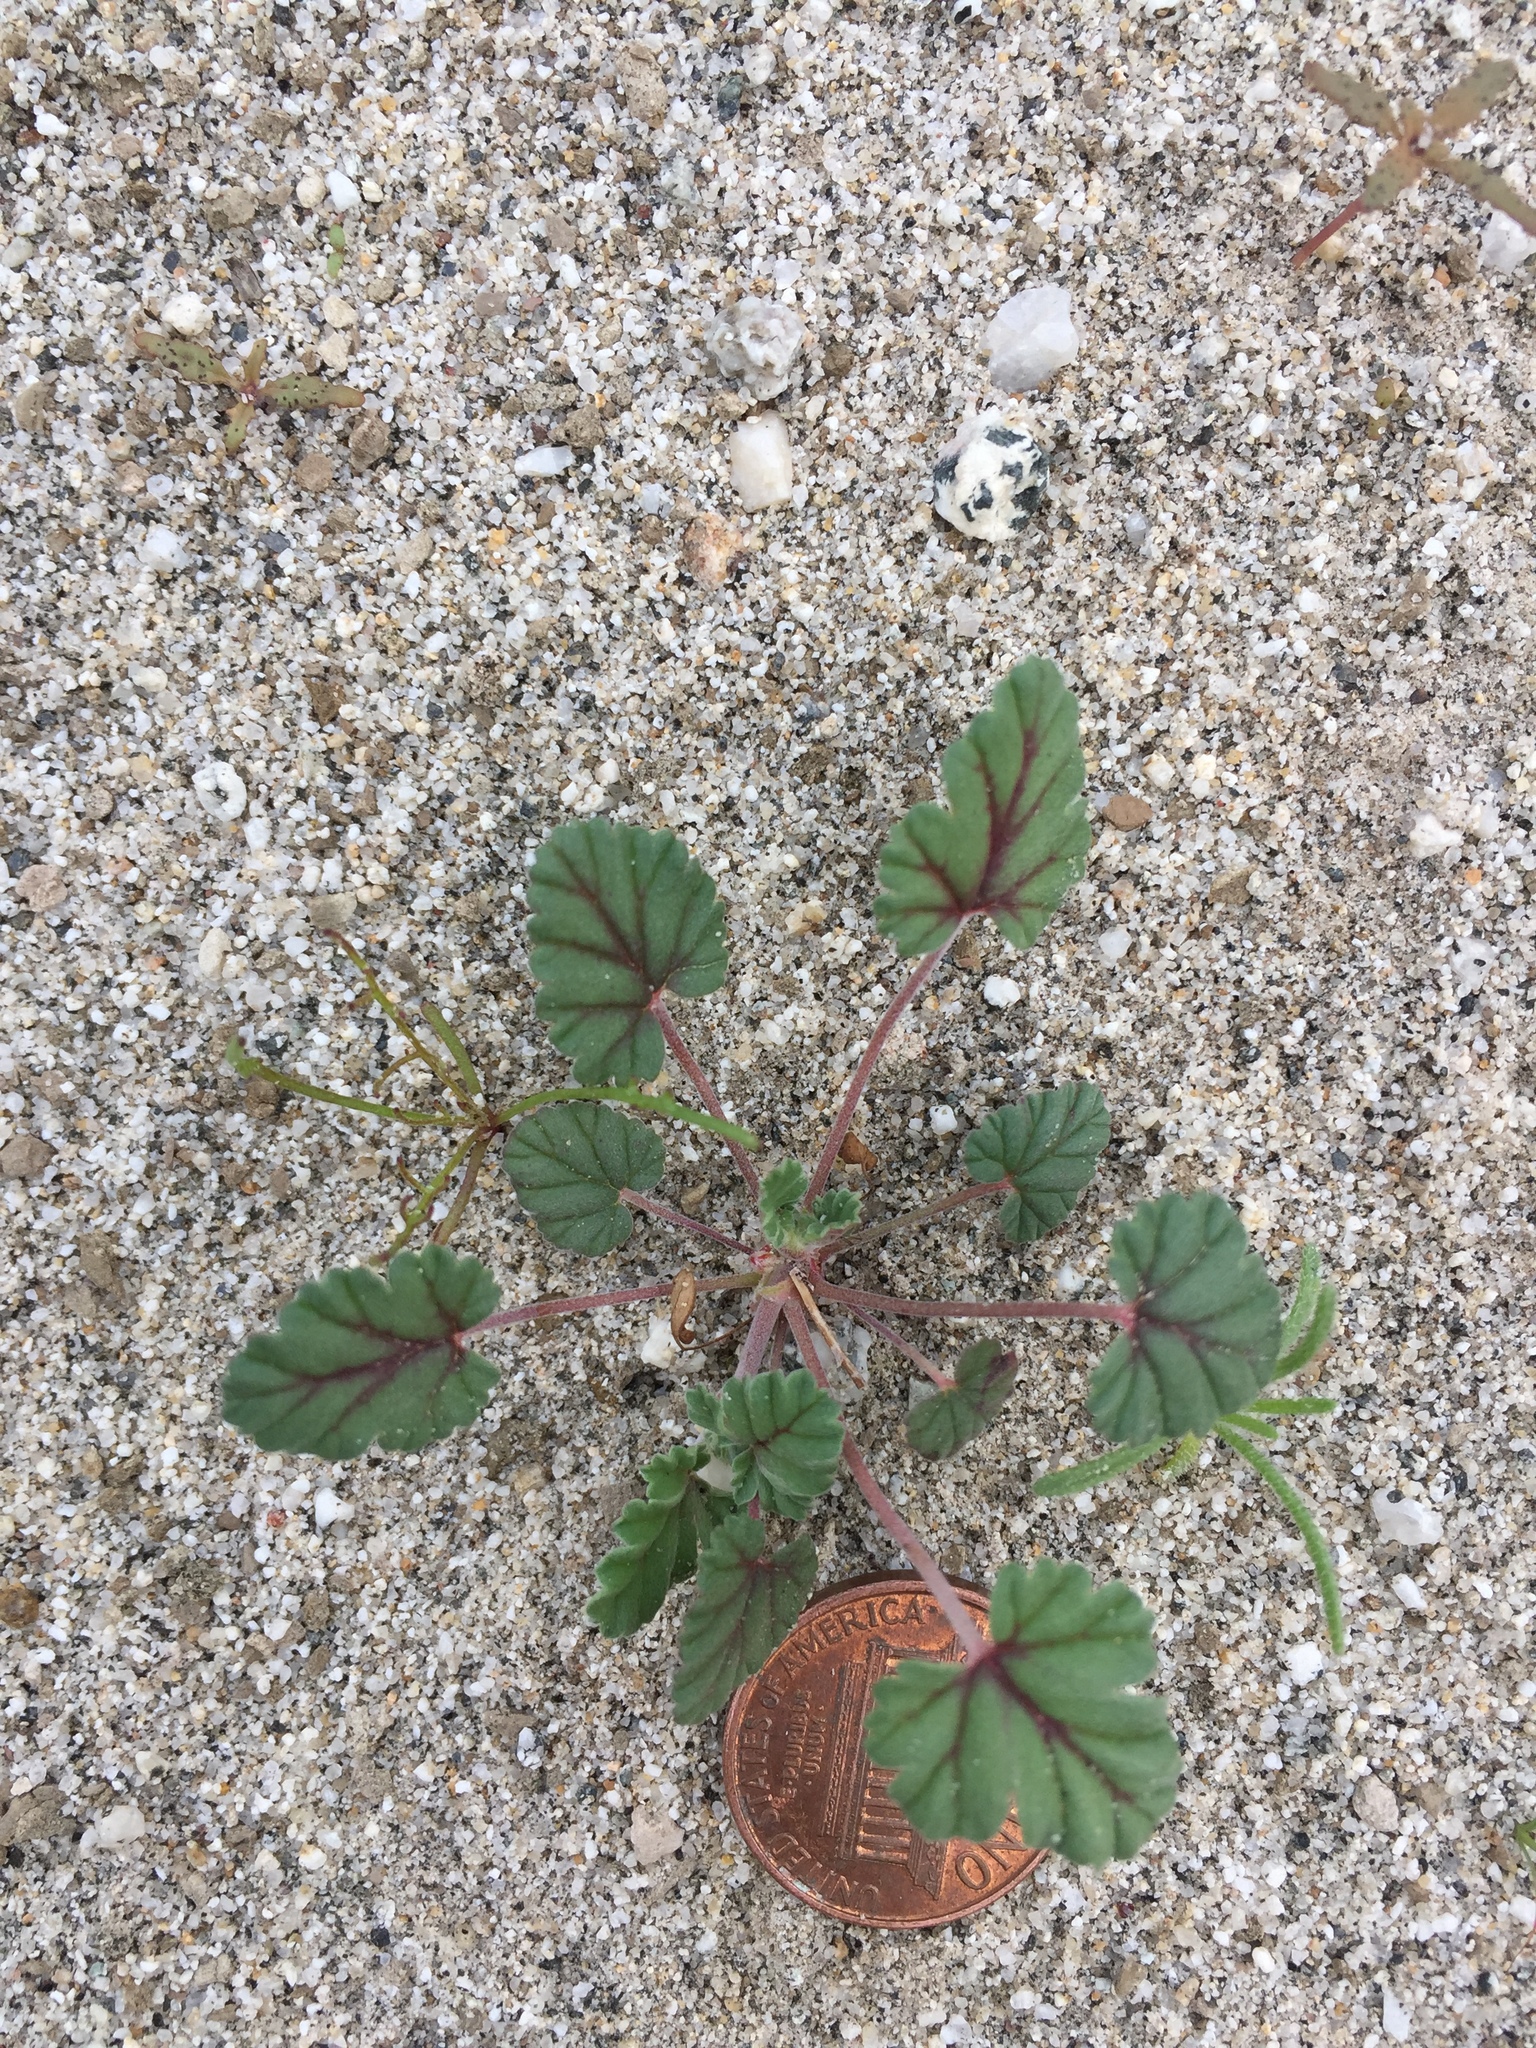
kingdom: Plantae
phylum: Tracheophyta
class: Magnoliopsida
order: Geraniales
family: Geraniaceae
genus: Erodium
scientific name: Erodium texanum
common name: Texas stork's-bill
